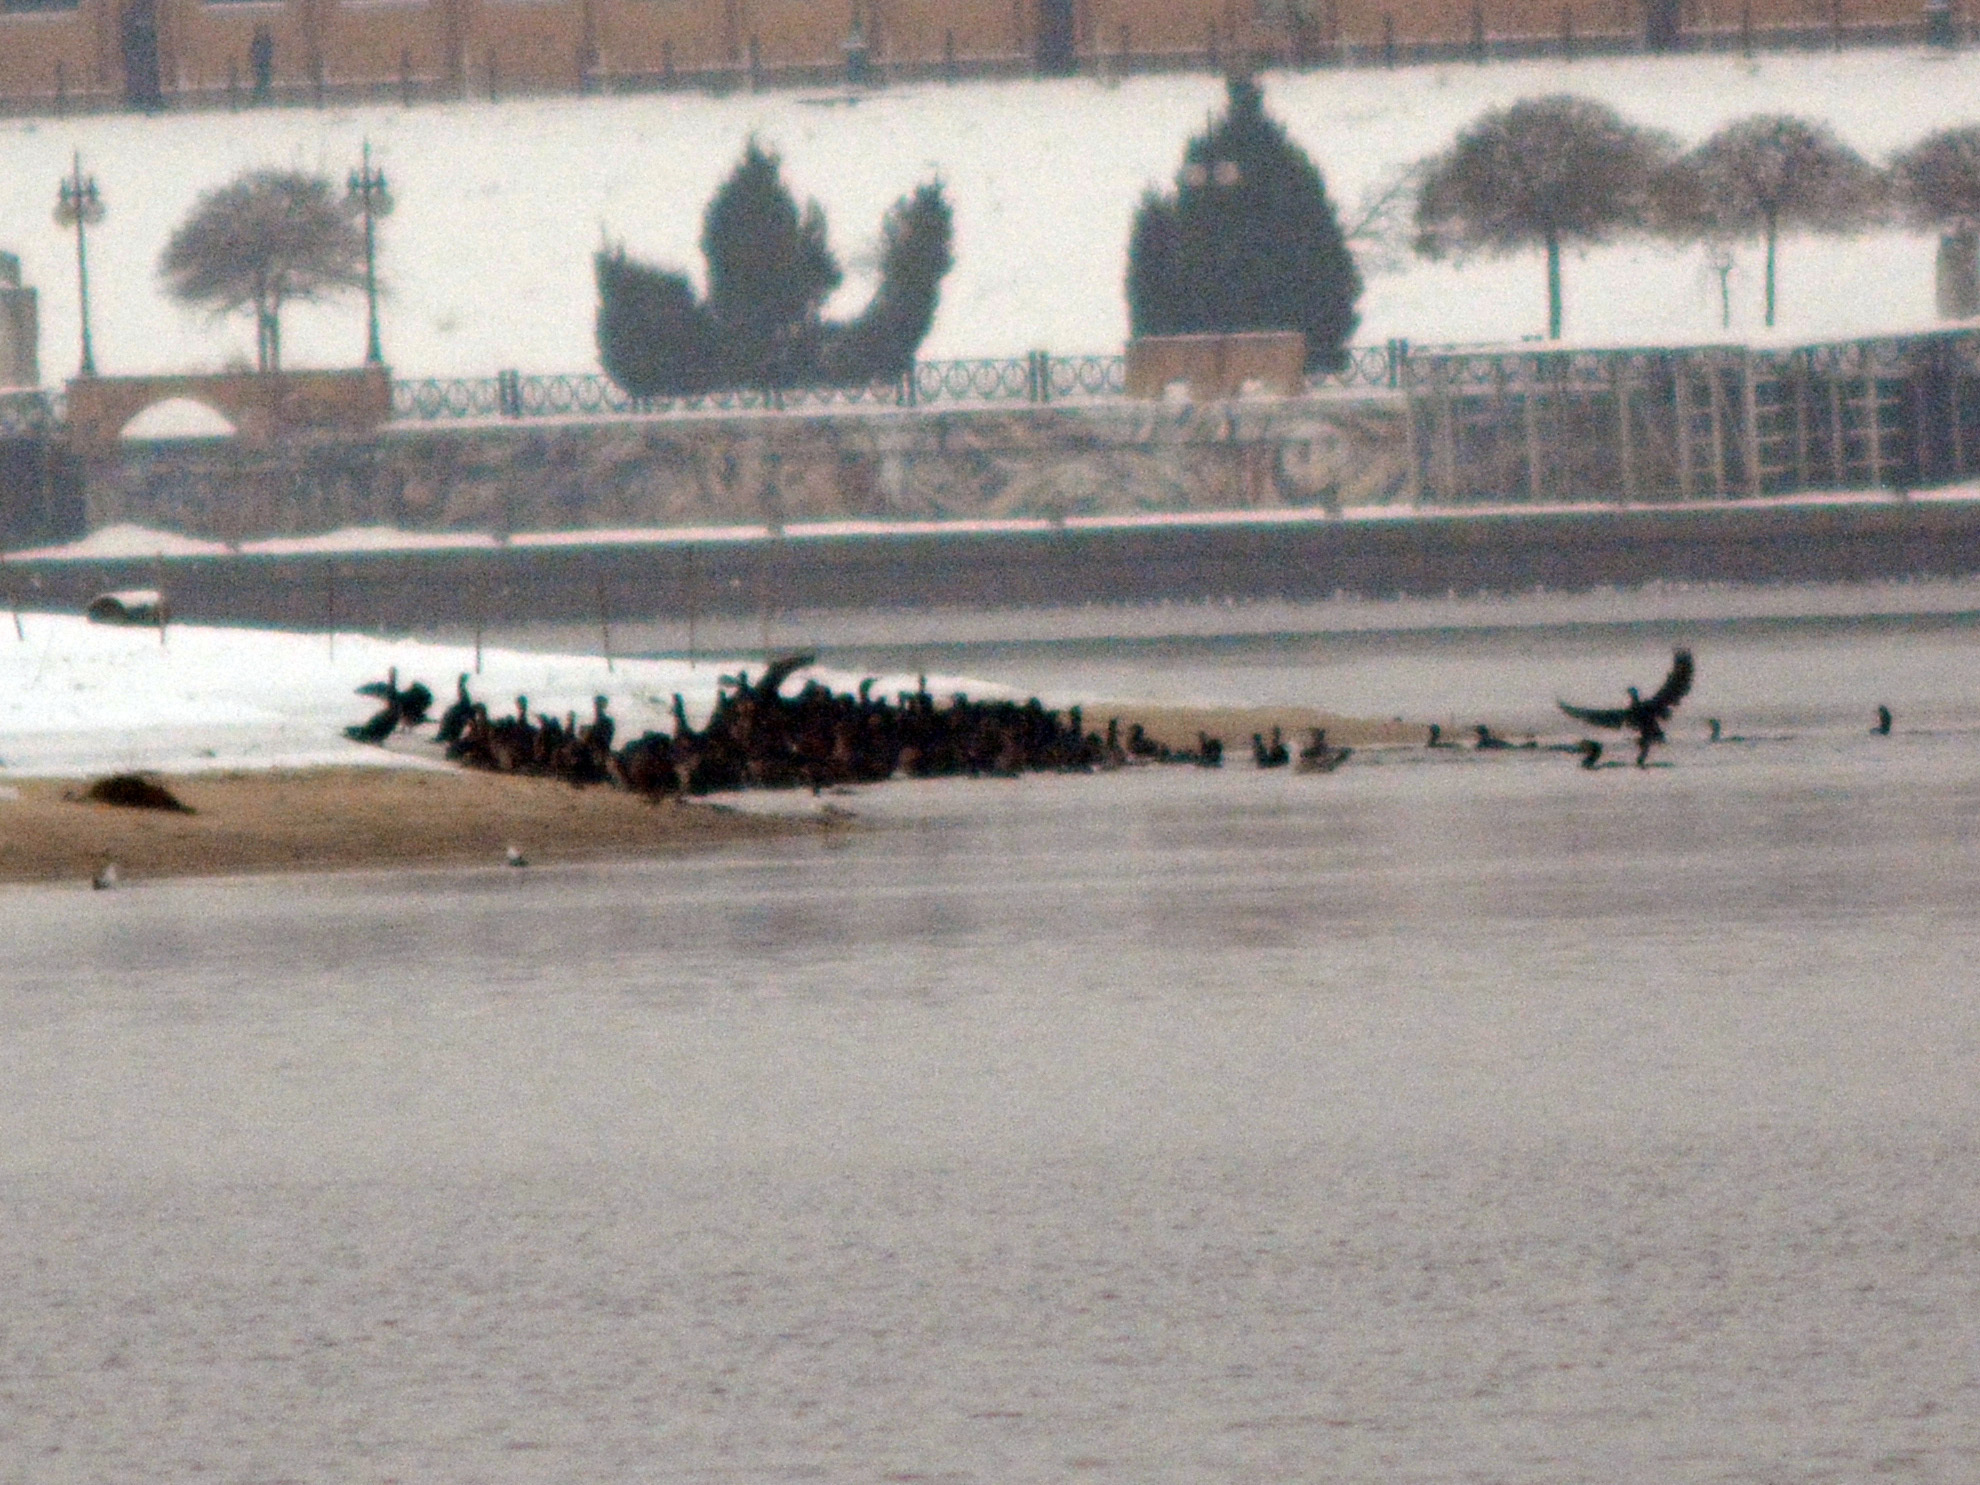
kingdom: Animalia
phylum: Chordata
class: Aves
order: Suliformes
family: Phalacrocoracidae
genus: Phalacrocorax
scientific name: Phalacrocorax carbo
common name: Great cormorant
